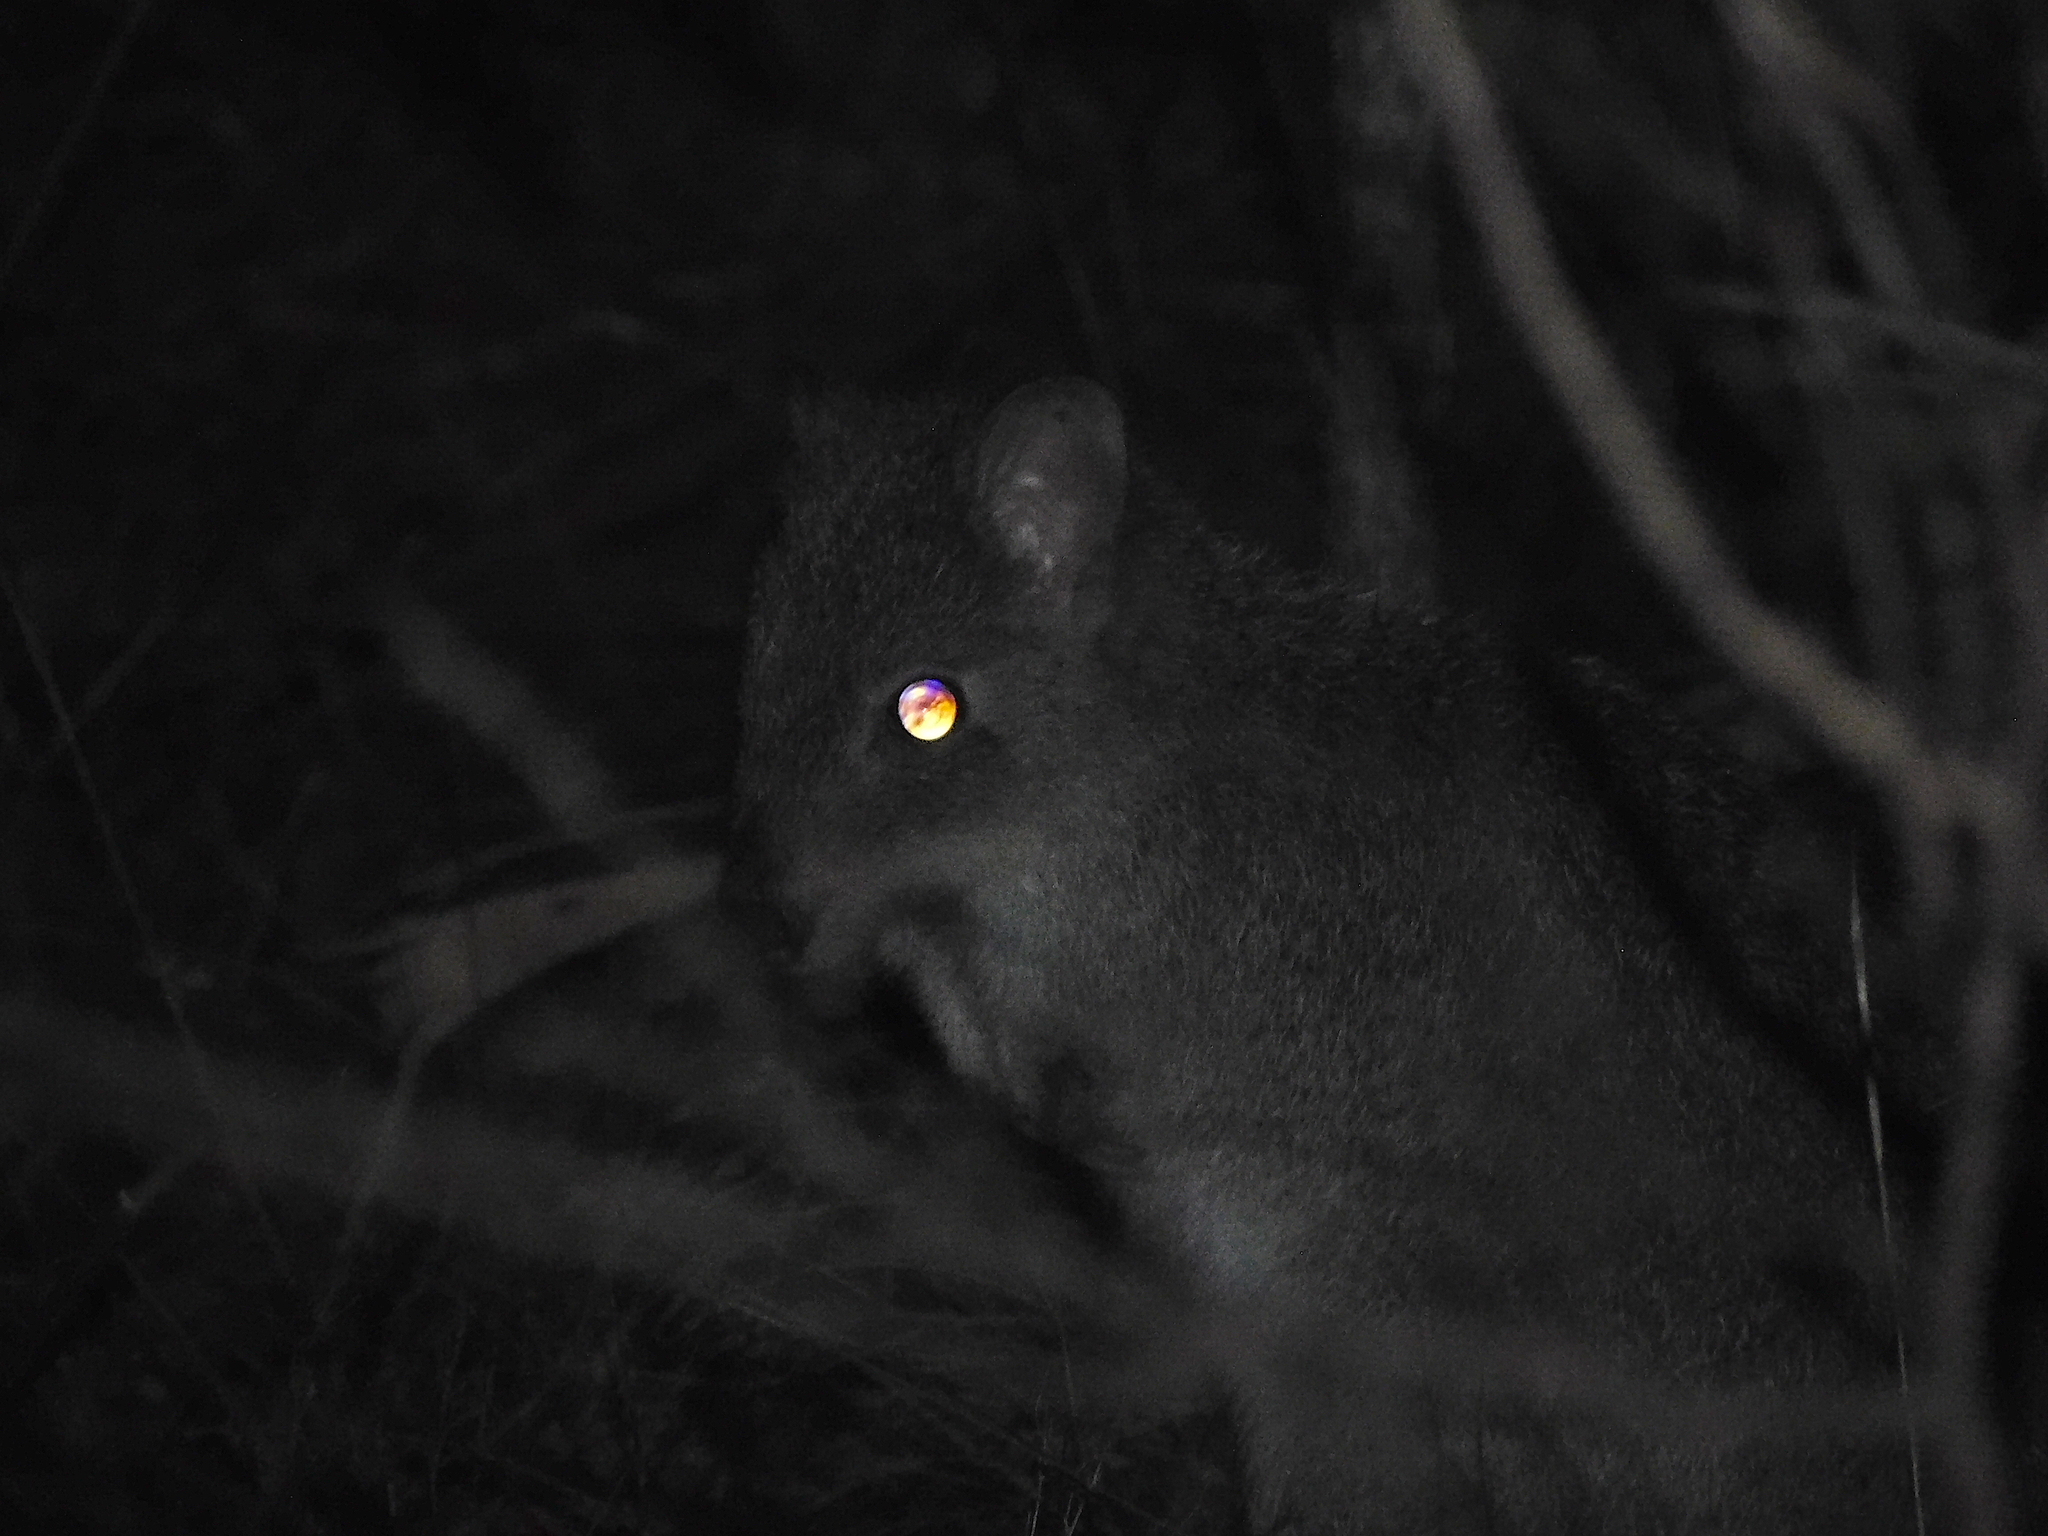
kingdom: Animalia
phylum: Chordata
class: Mammalia
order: Diprotodontia
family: Potoroidae
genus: Bettongia
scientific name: Bettongia gaimardi
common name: Eastern bettong
